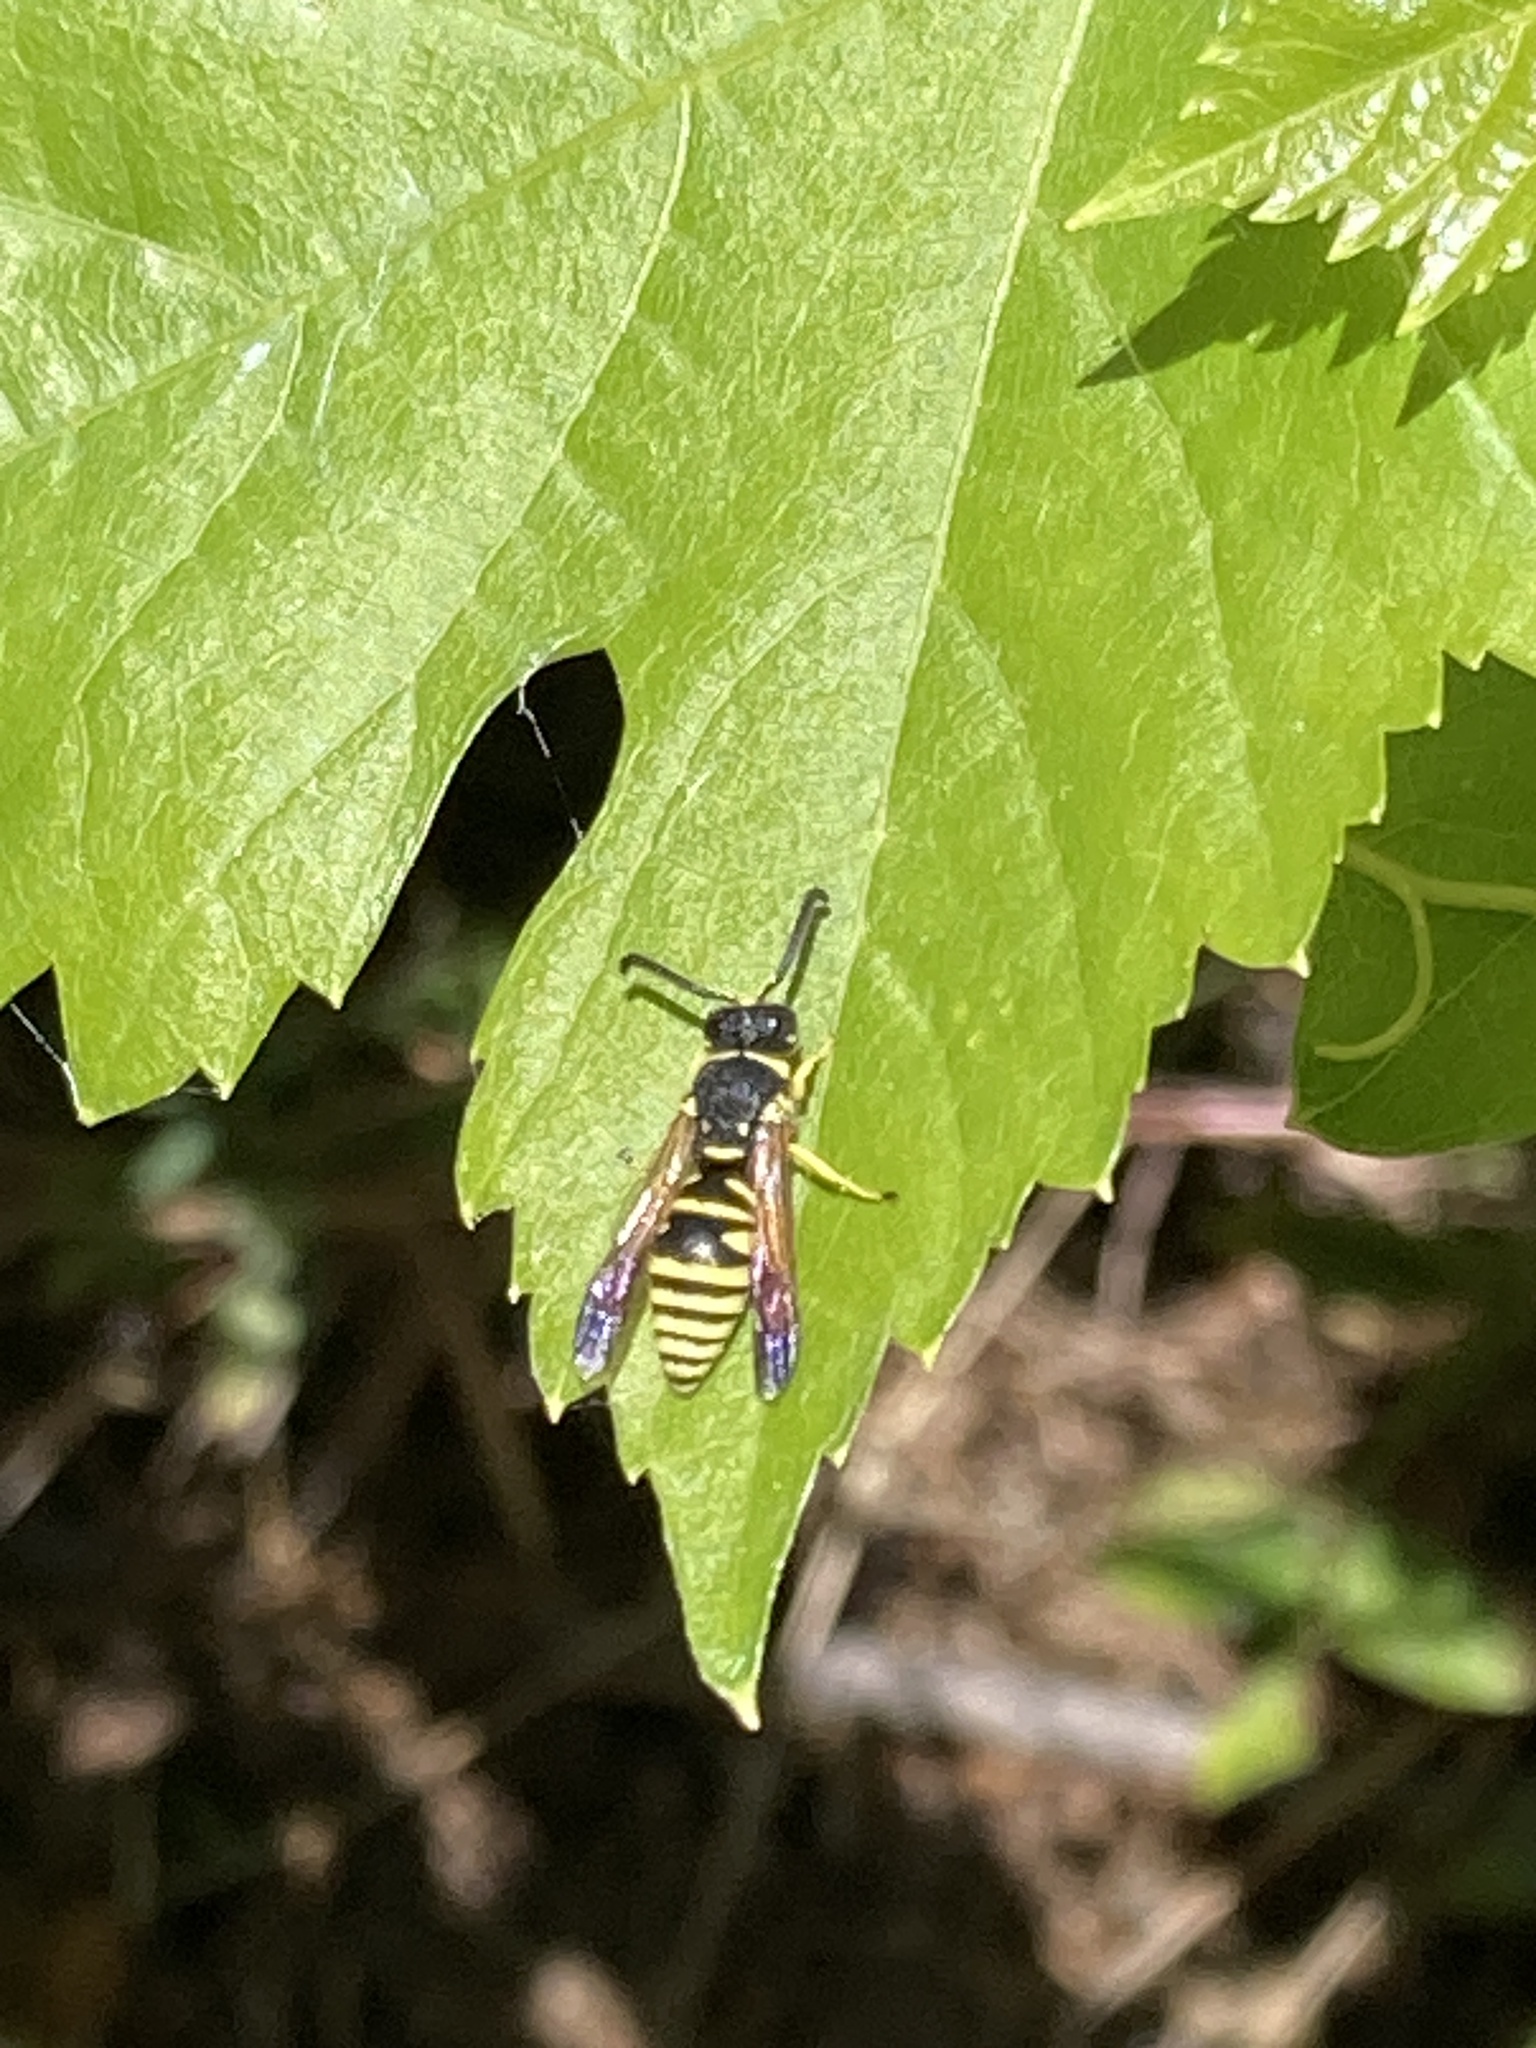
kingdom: Animalia
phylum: Arthropoda
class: Insecta
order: Hymenoptera
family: Eumenidae
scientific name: Eumenidae
